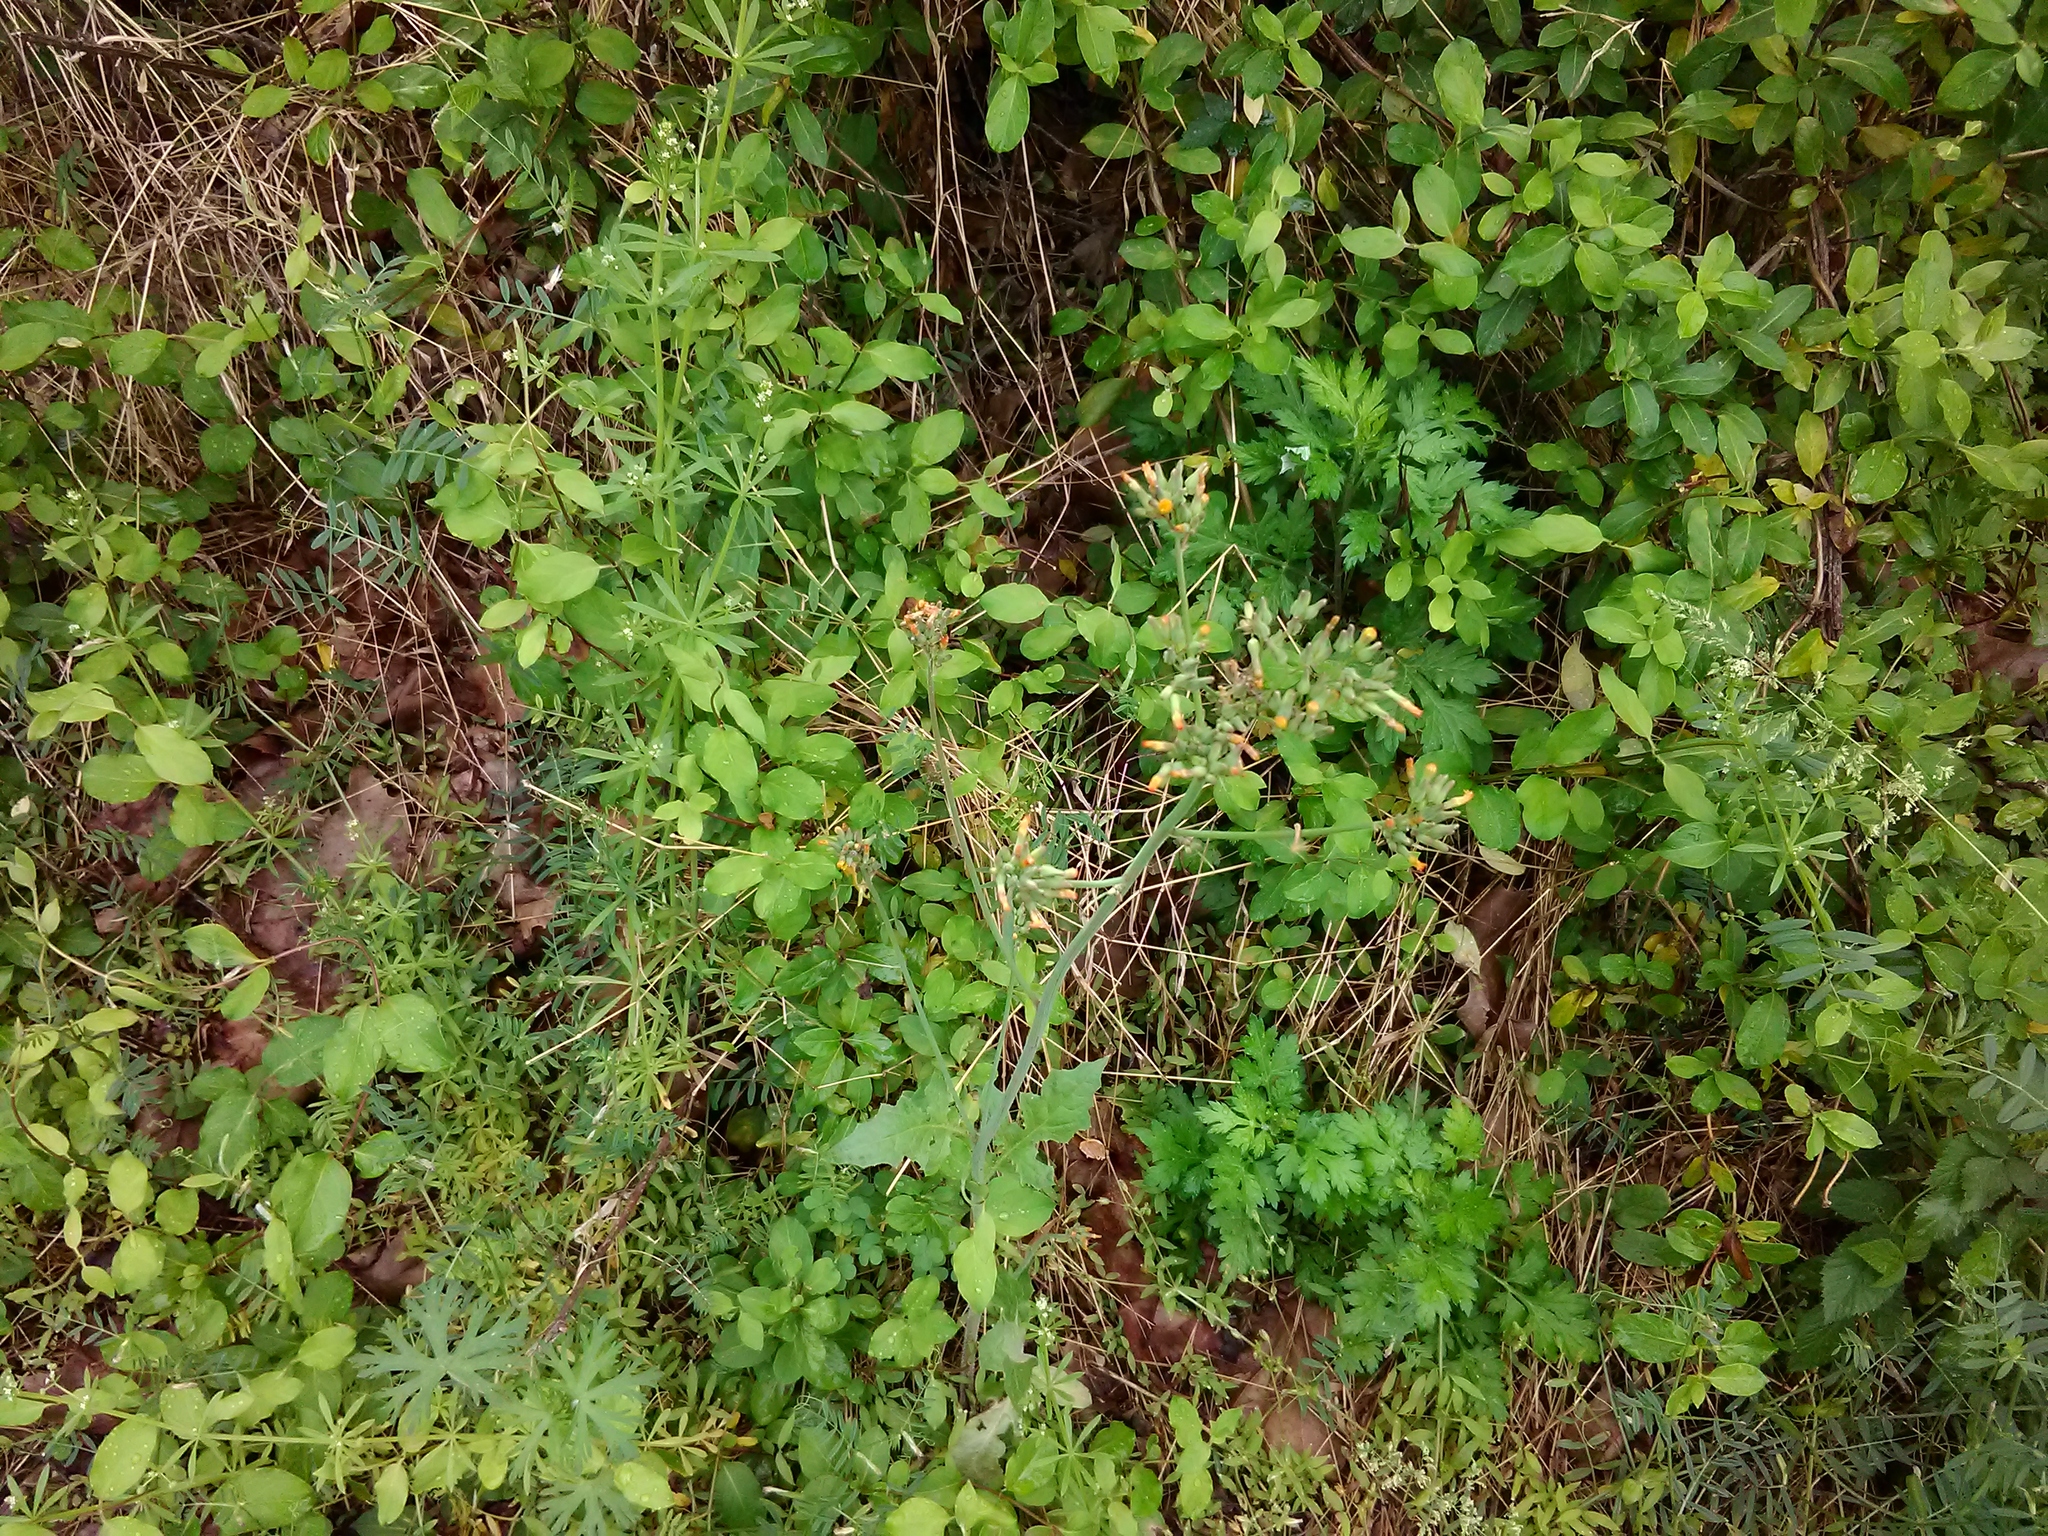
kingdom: Plantae
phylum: Tracheophyta
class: Magnoliopsida
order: Asterales
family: Asteraceae
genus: Youngia
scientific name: Youngia japonica
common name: Oriental false hawksbeard
